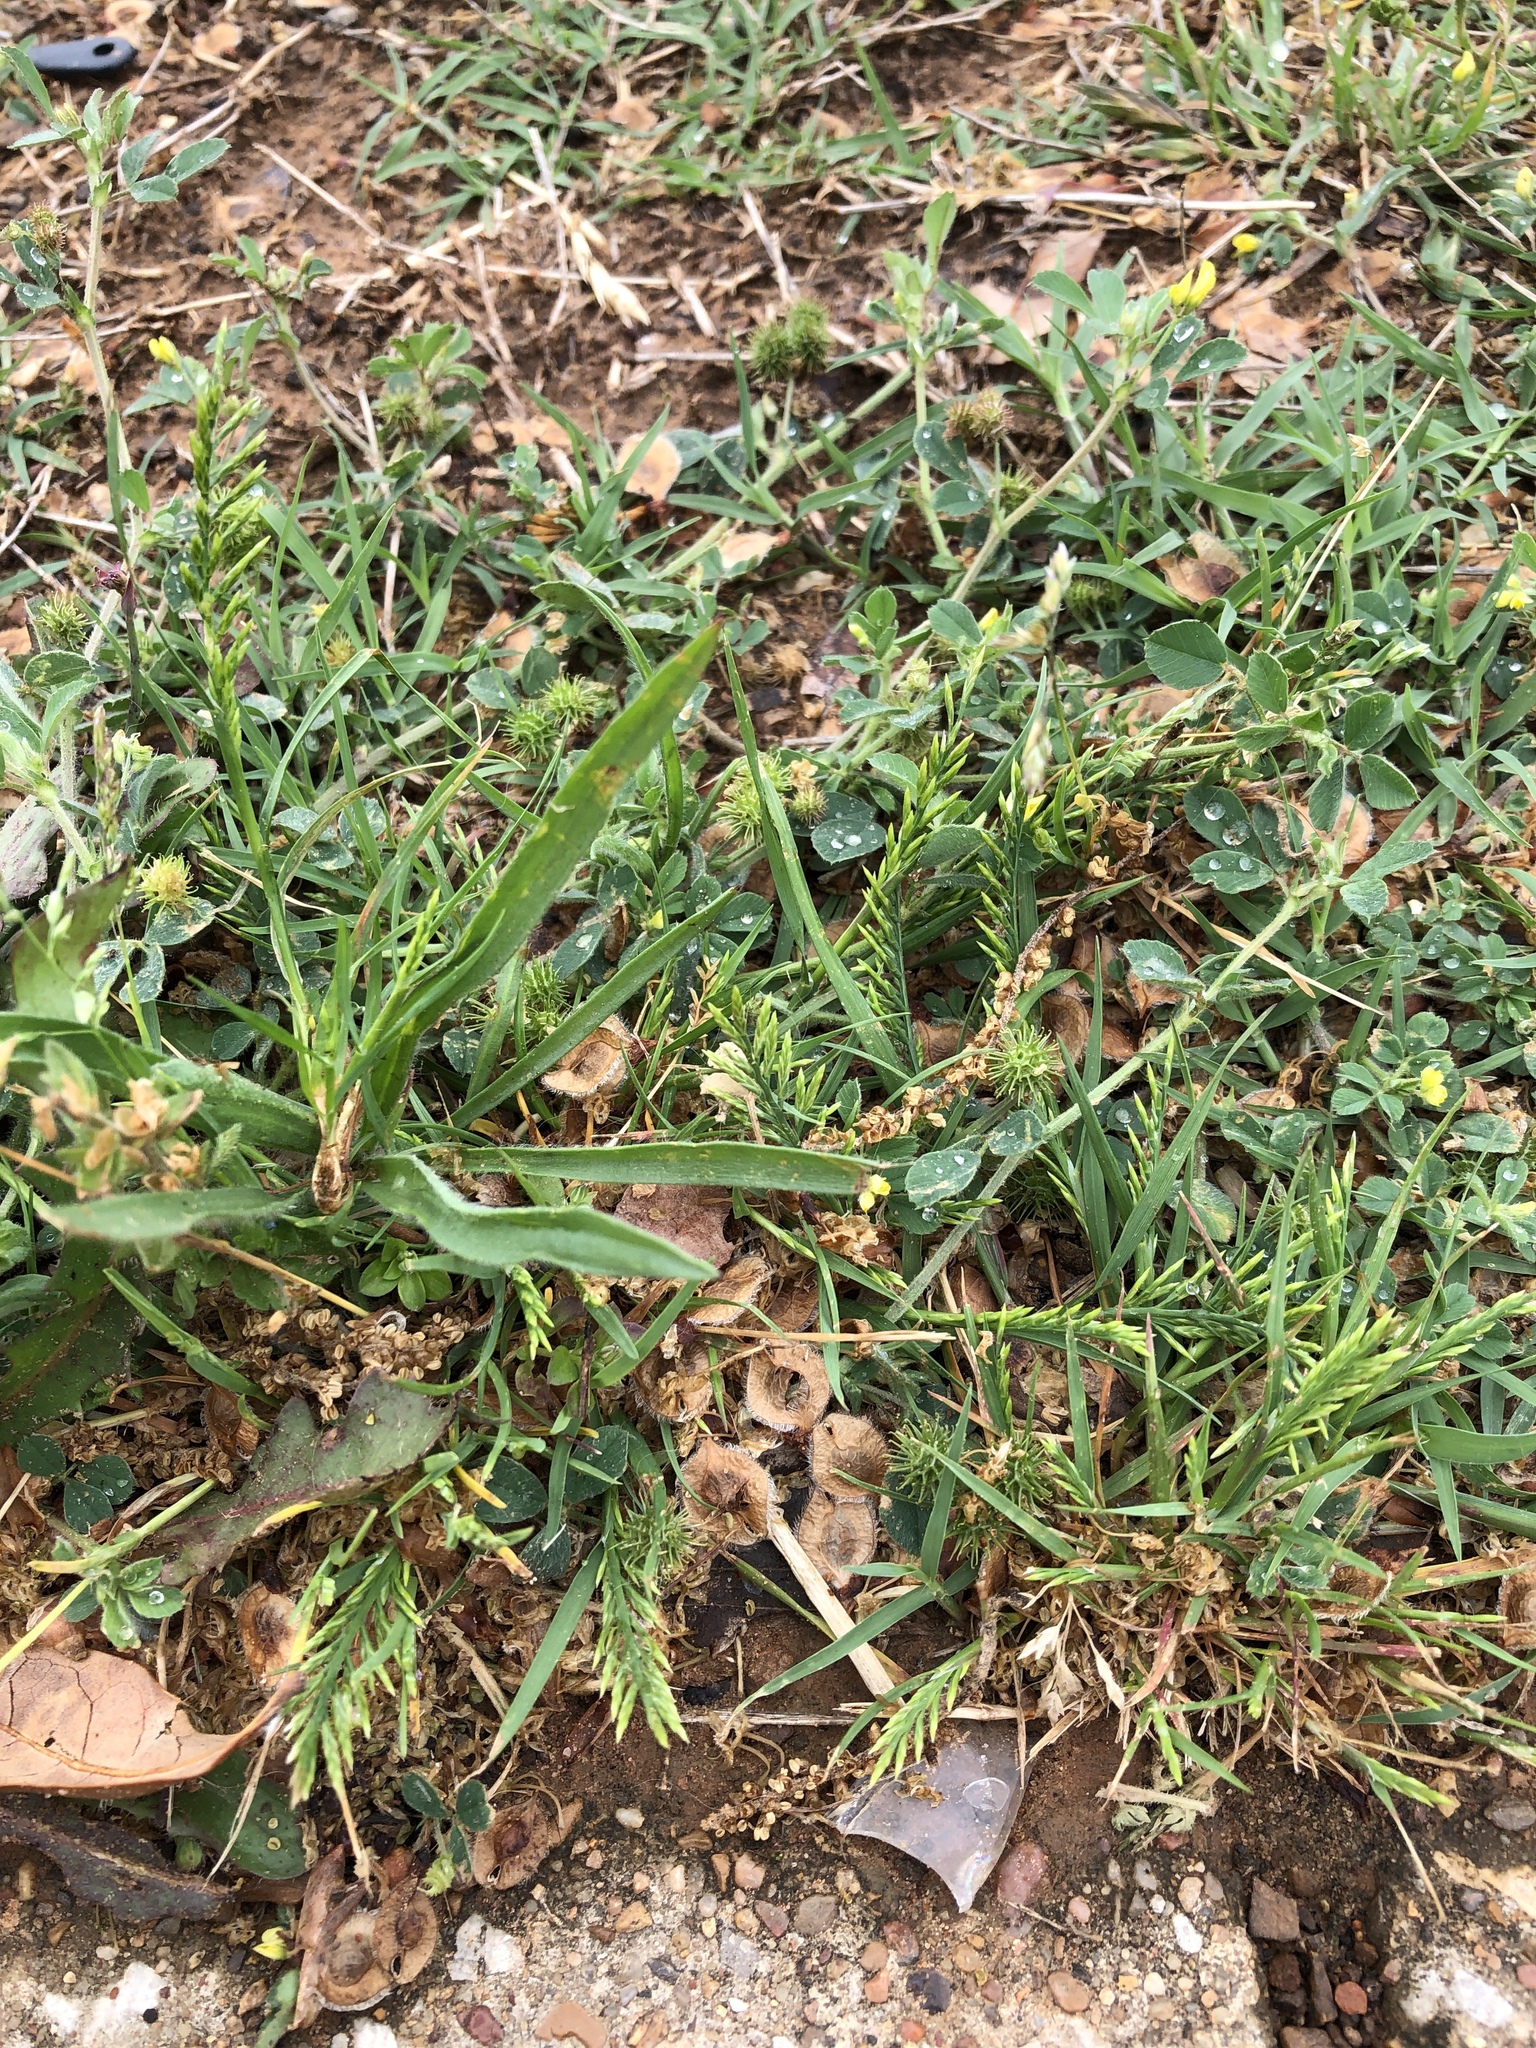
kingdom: Plantae
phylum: Tracheophyta
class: Liliopsida
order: Poales
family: Poaceae
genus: Catapodium
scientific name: Catapodium rigidum
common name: Fern-grass
